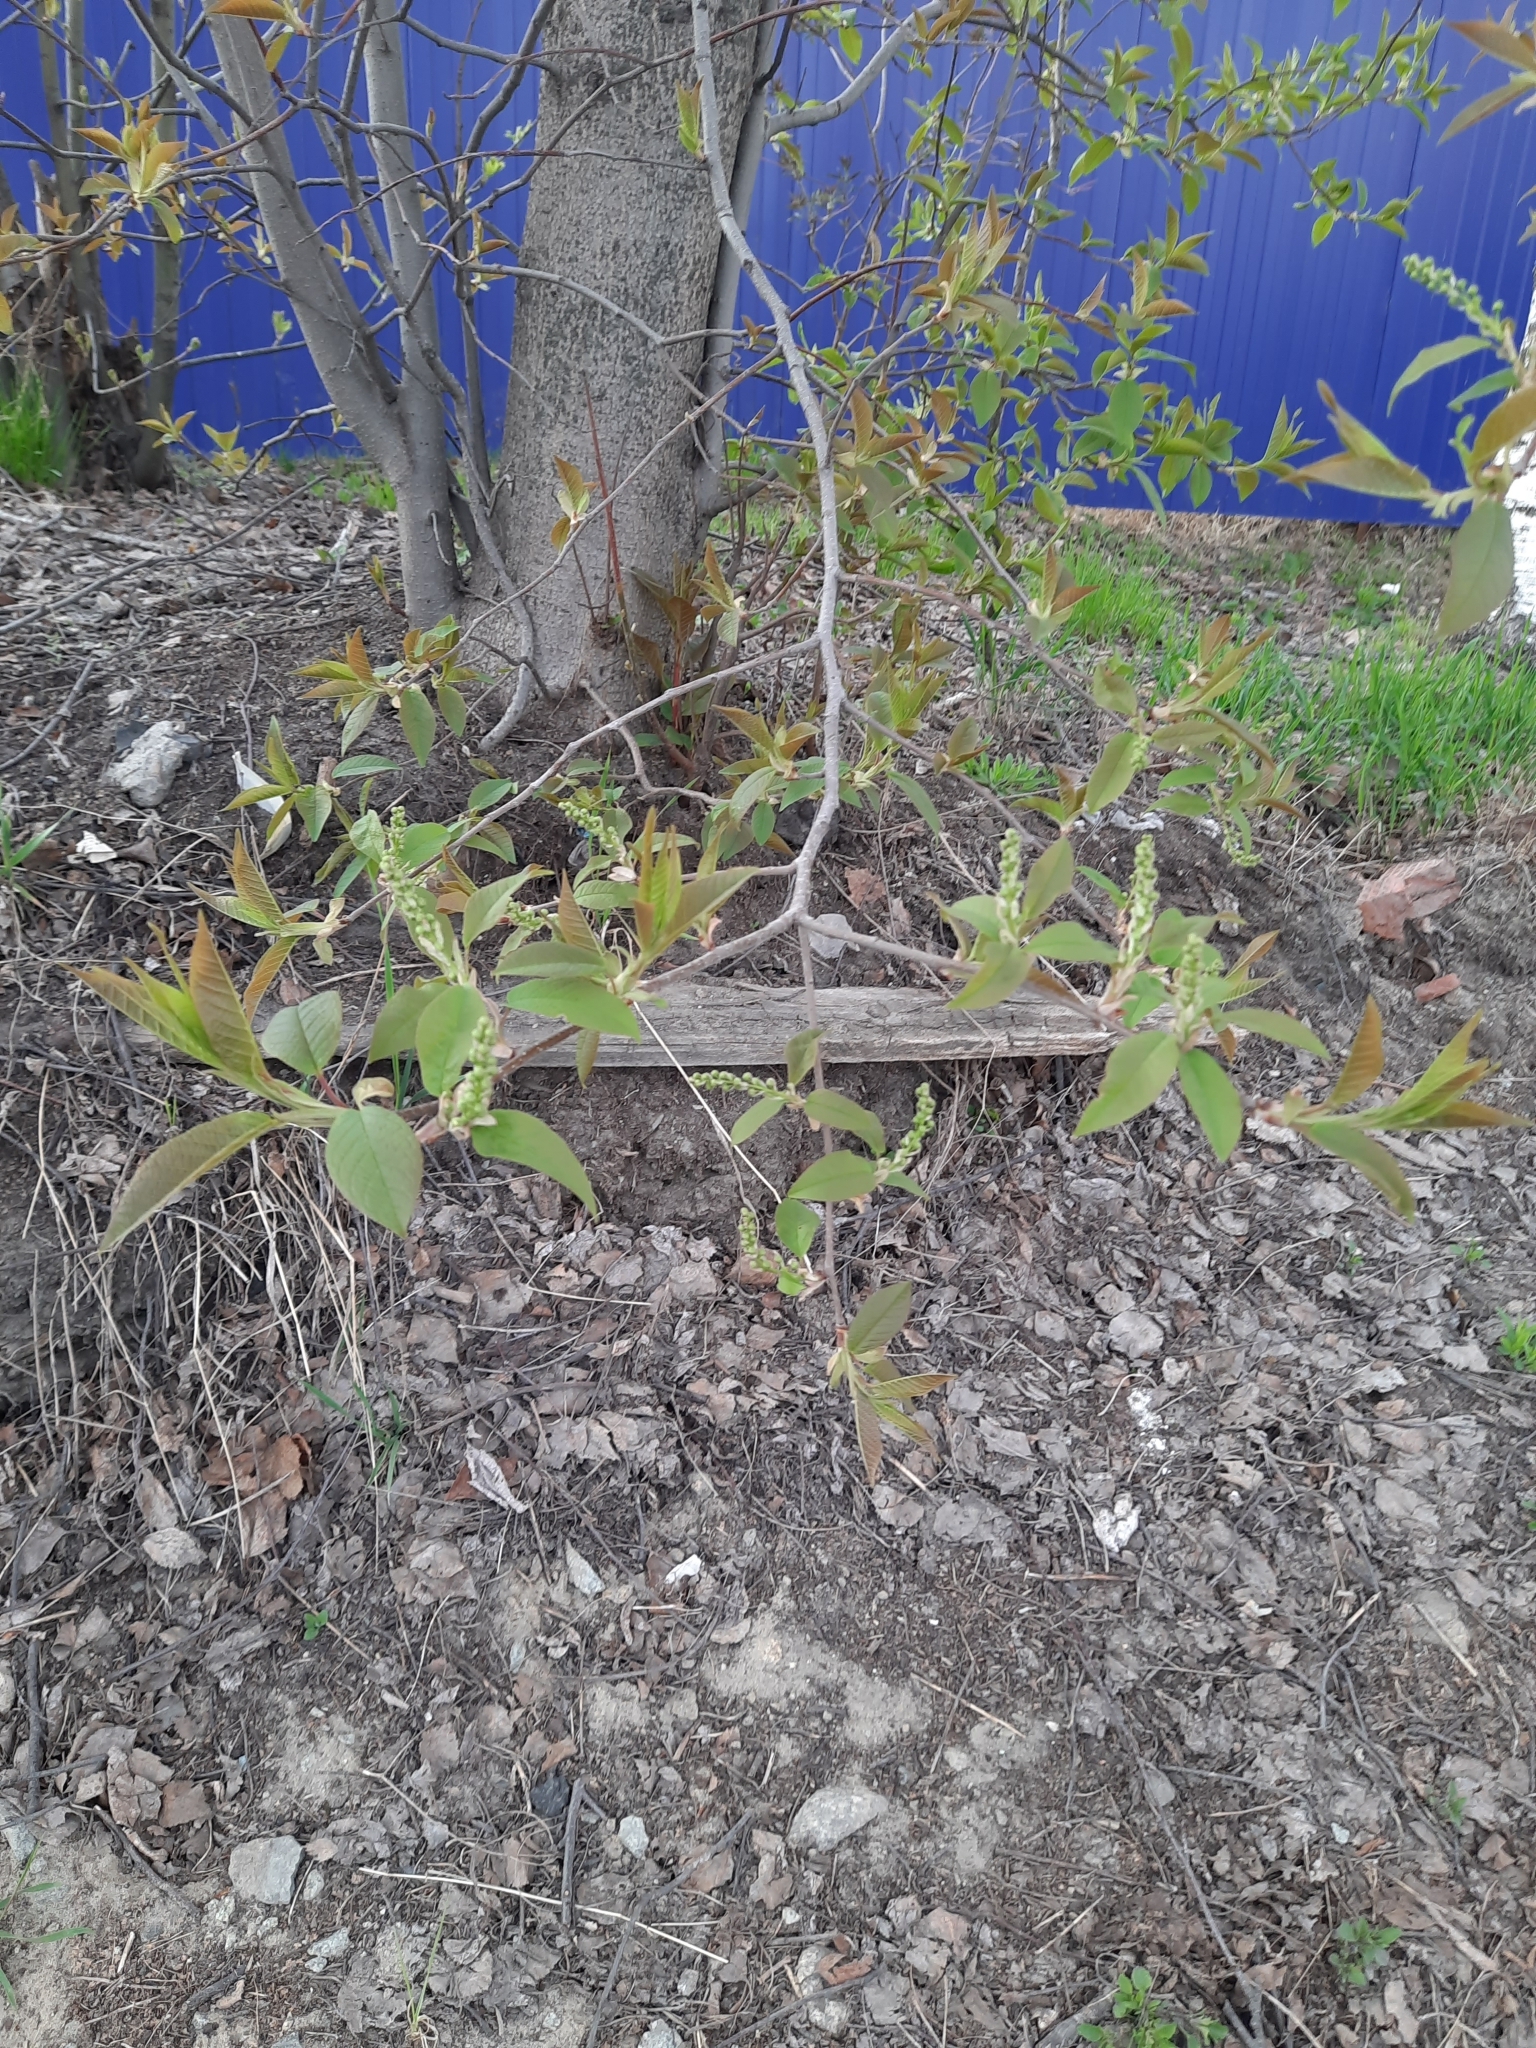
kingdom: Plantae
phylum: Tracheophyta
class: Magnoliopsida
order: Rosales
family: Rosaceae
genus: Prunus
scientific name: Prunus padus
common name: Bird cherry
